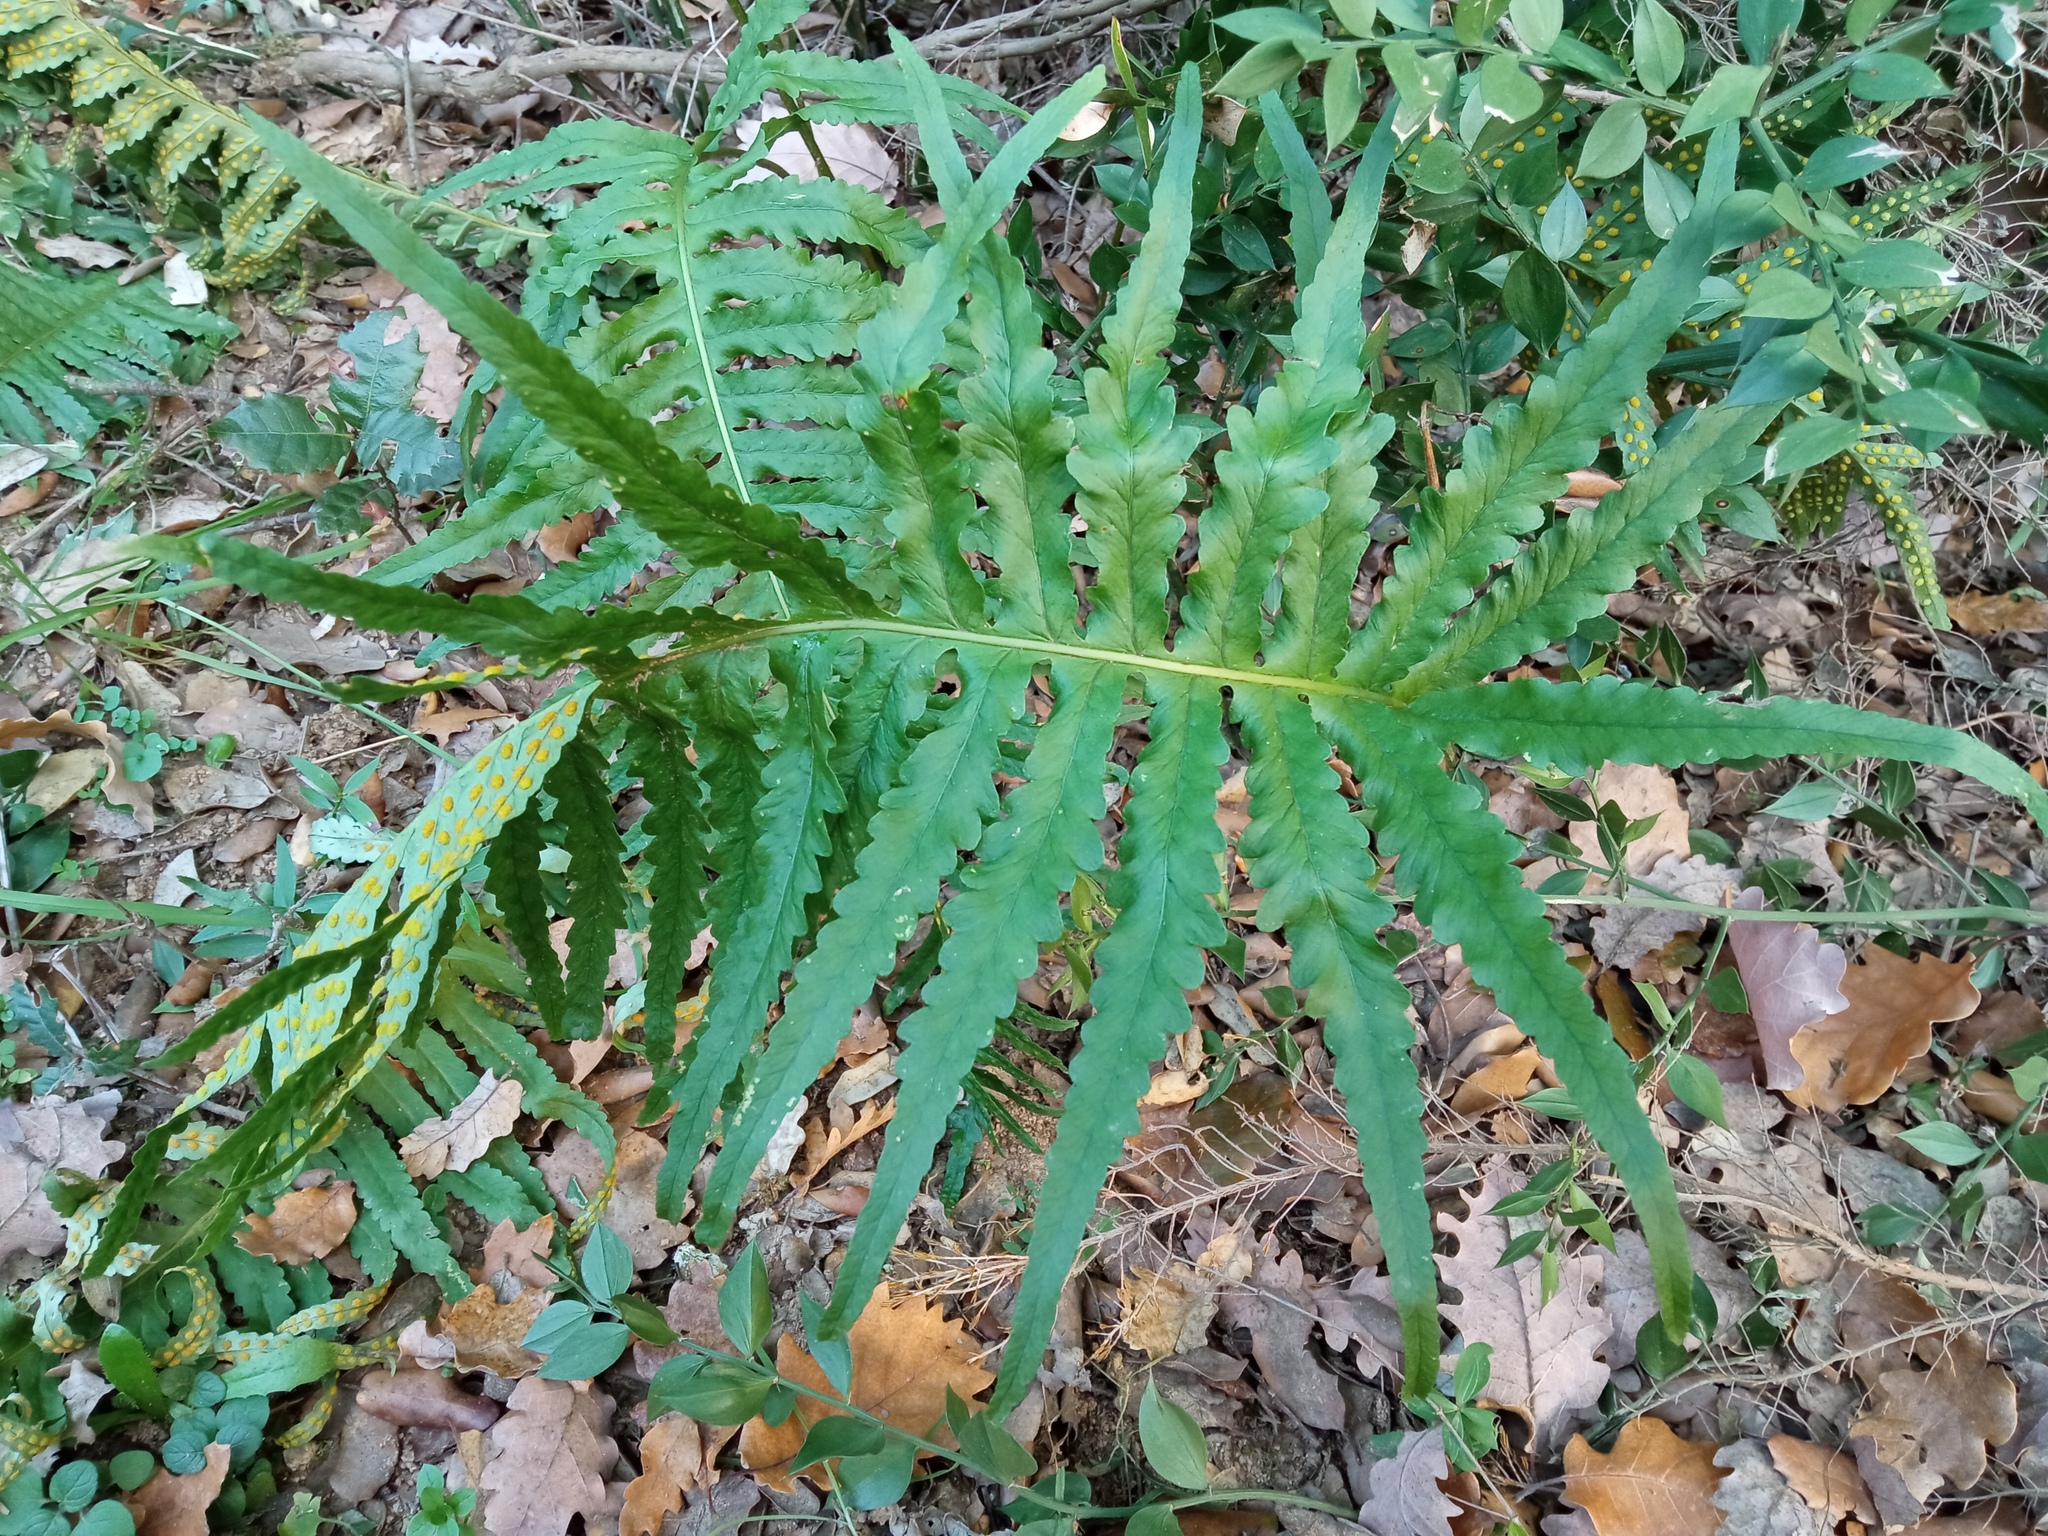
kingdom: Plantae
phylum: Tracheophyta
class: Polypodiopsida
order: Polypodiales
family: Polypodiaceae
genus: Polypodium
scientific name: Polypodium cambricum
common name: Southern polypody
